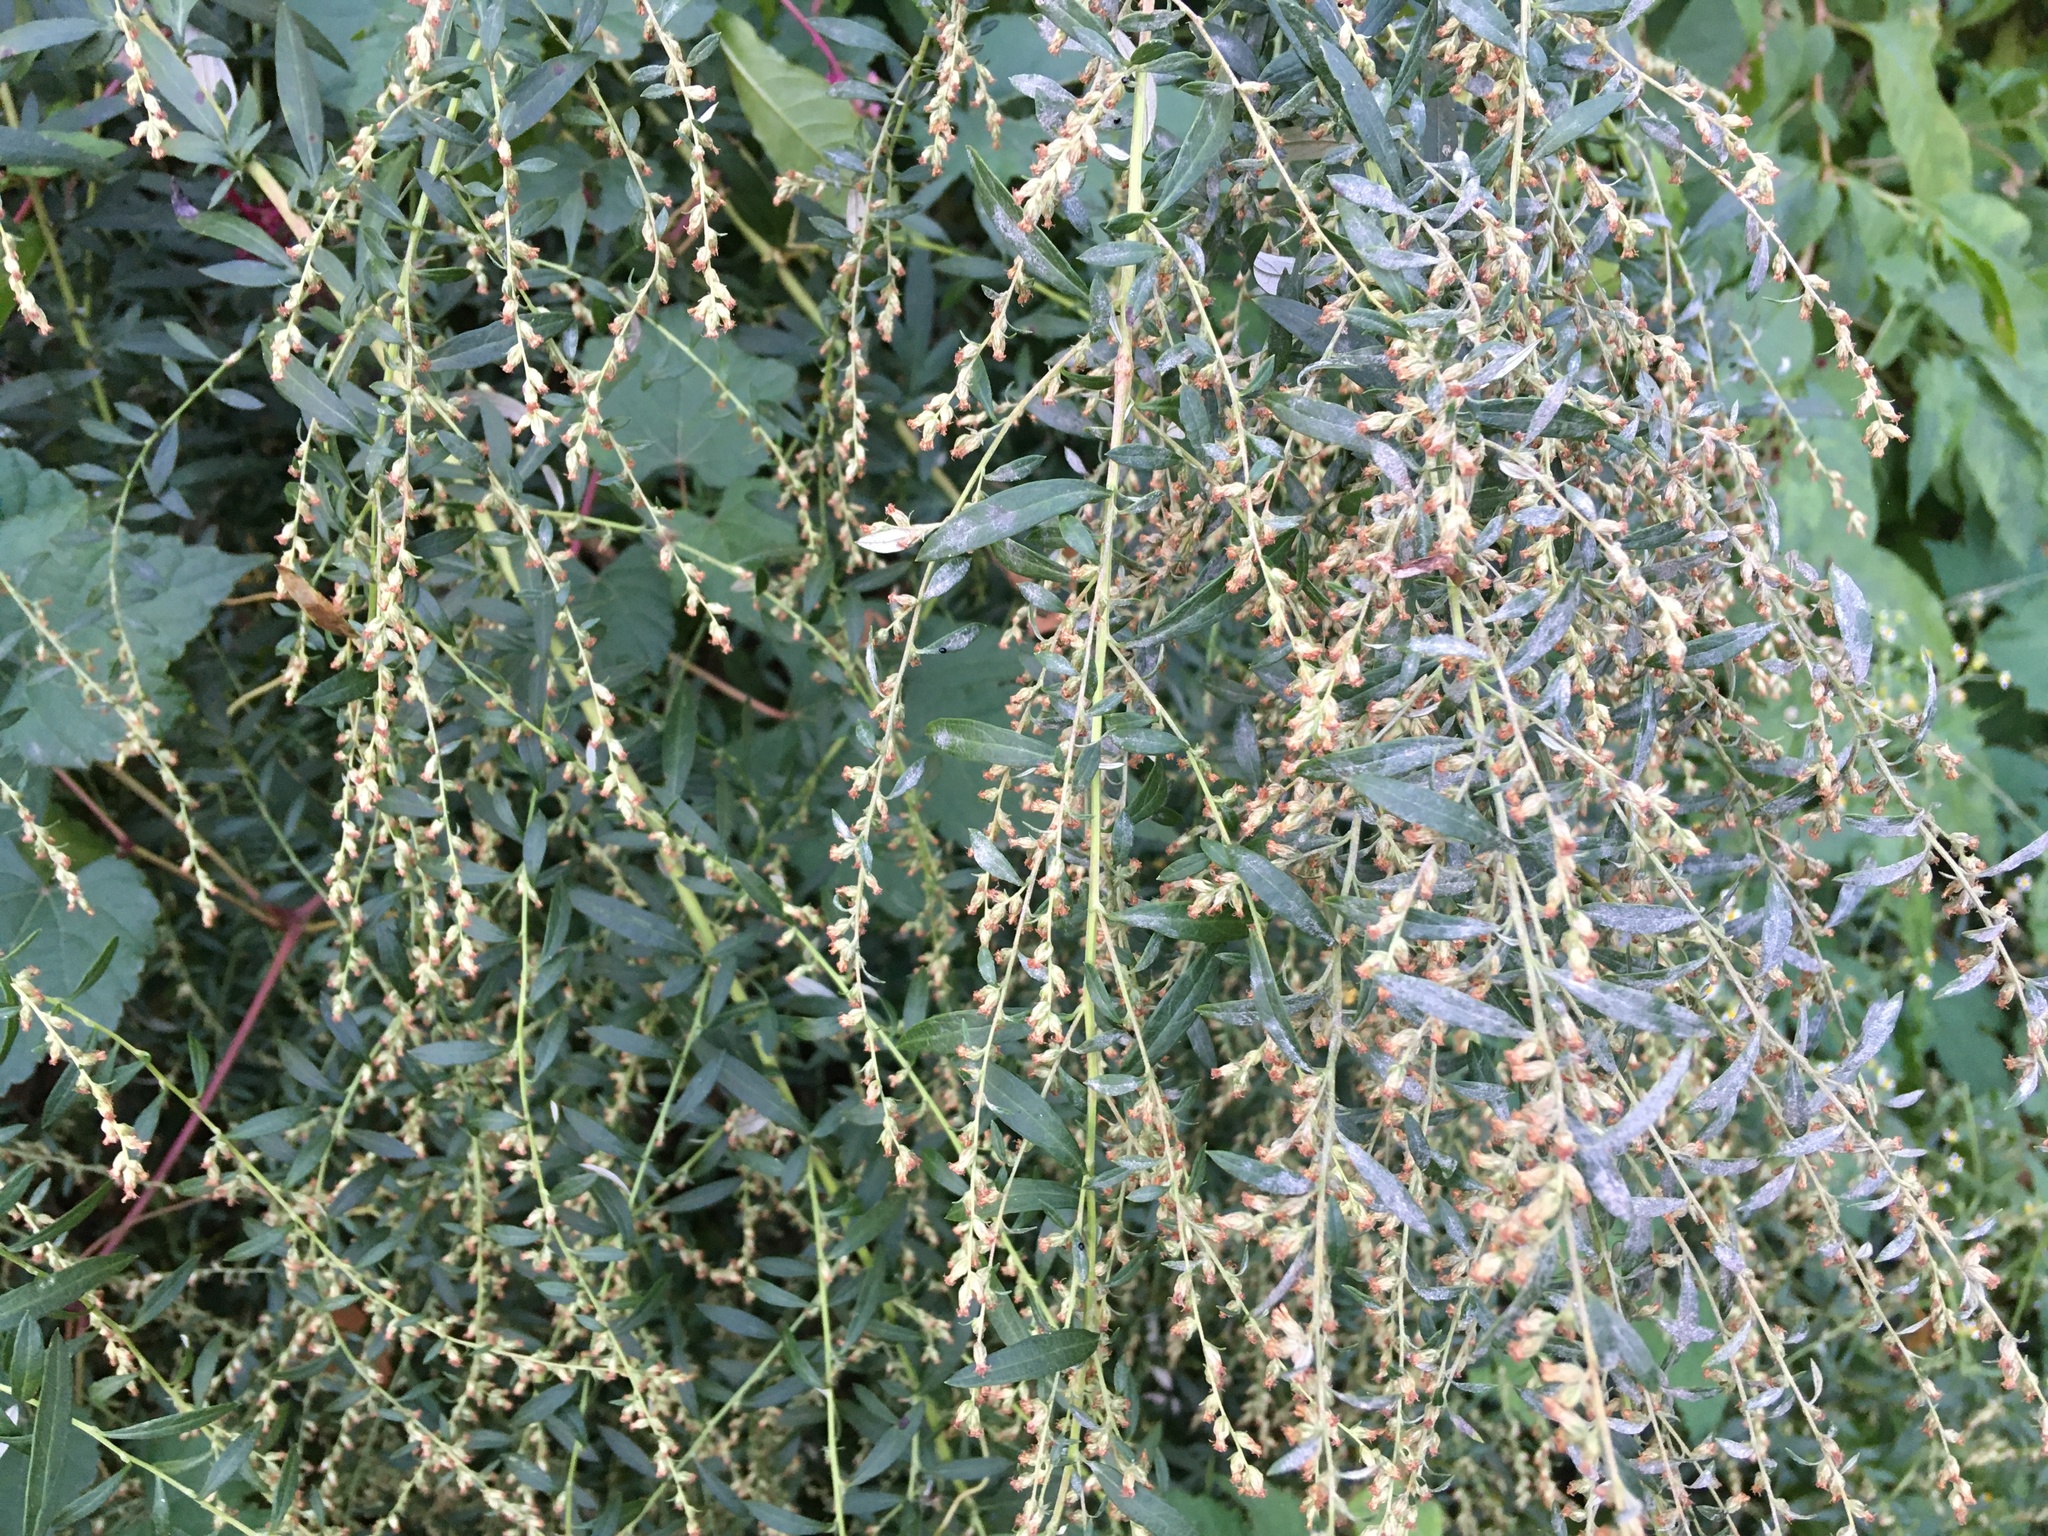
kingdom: Plantae
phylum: Tracheophyta
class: Magnoliopsida
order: Asterales
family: Asteraceae
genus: Artemisia
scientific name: Artemisia vulgaris
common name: Mugwort
